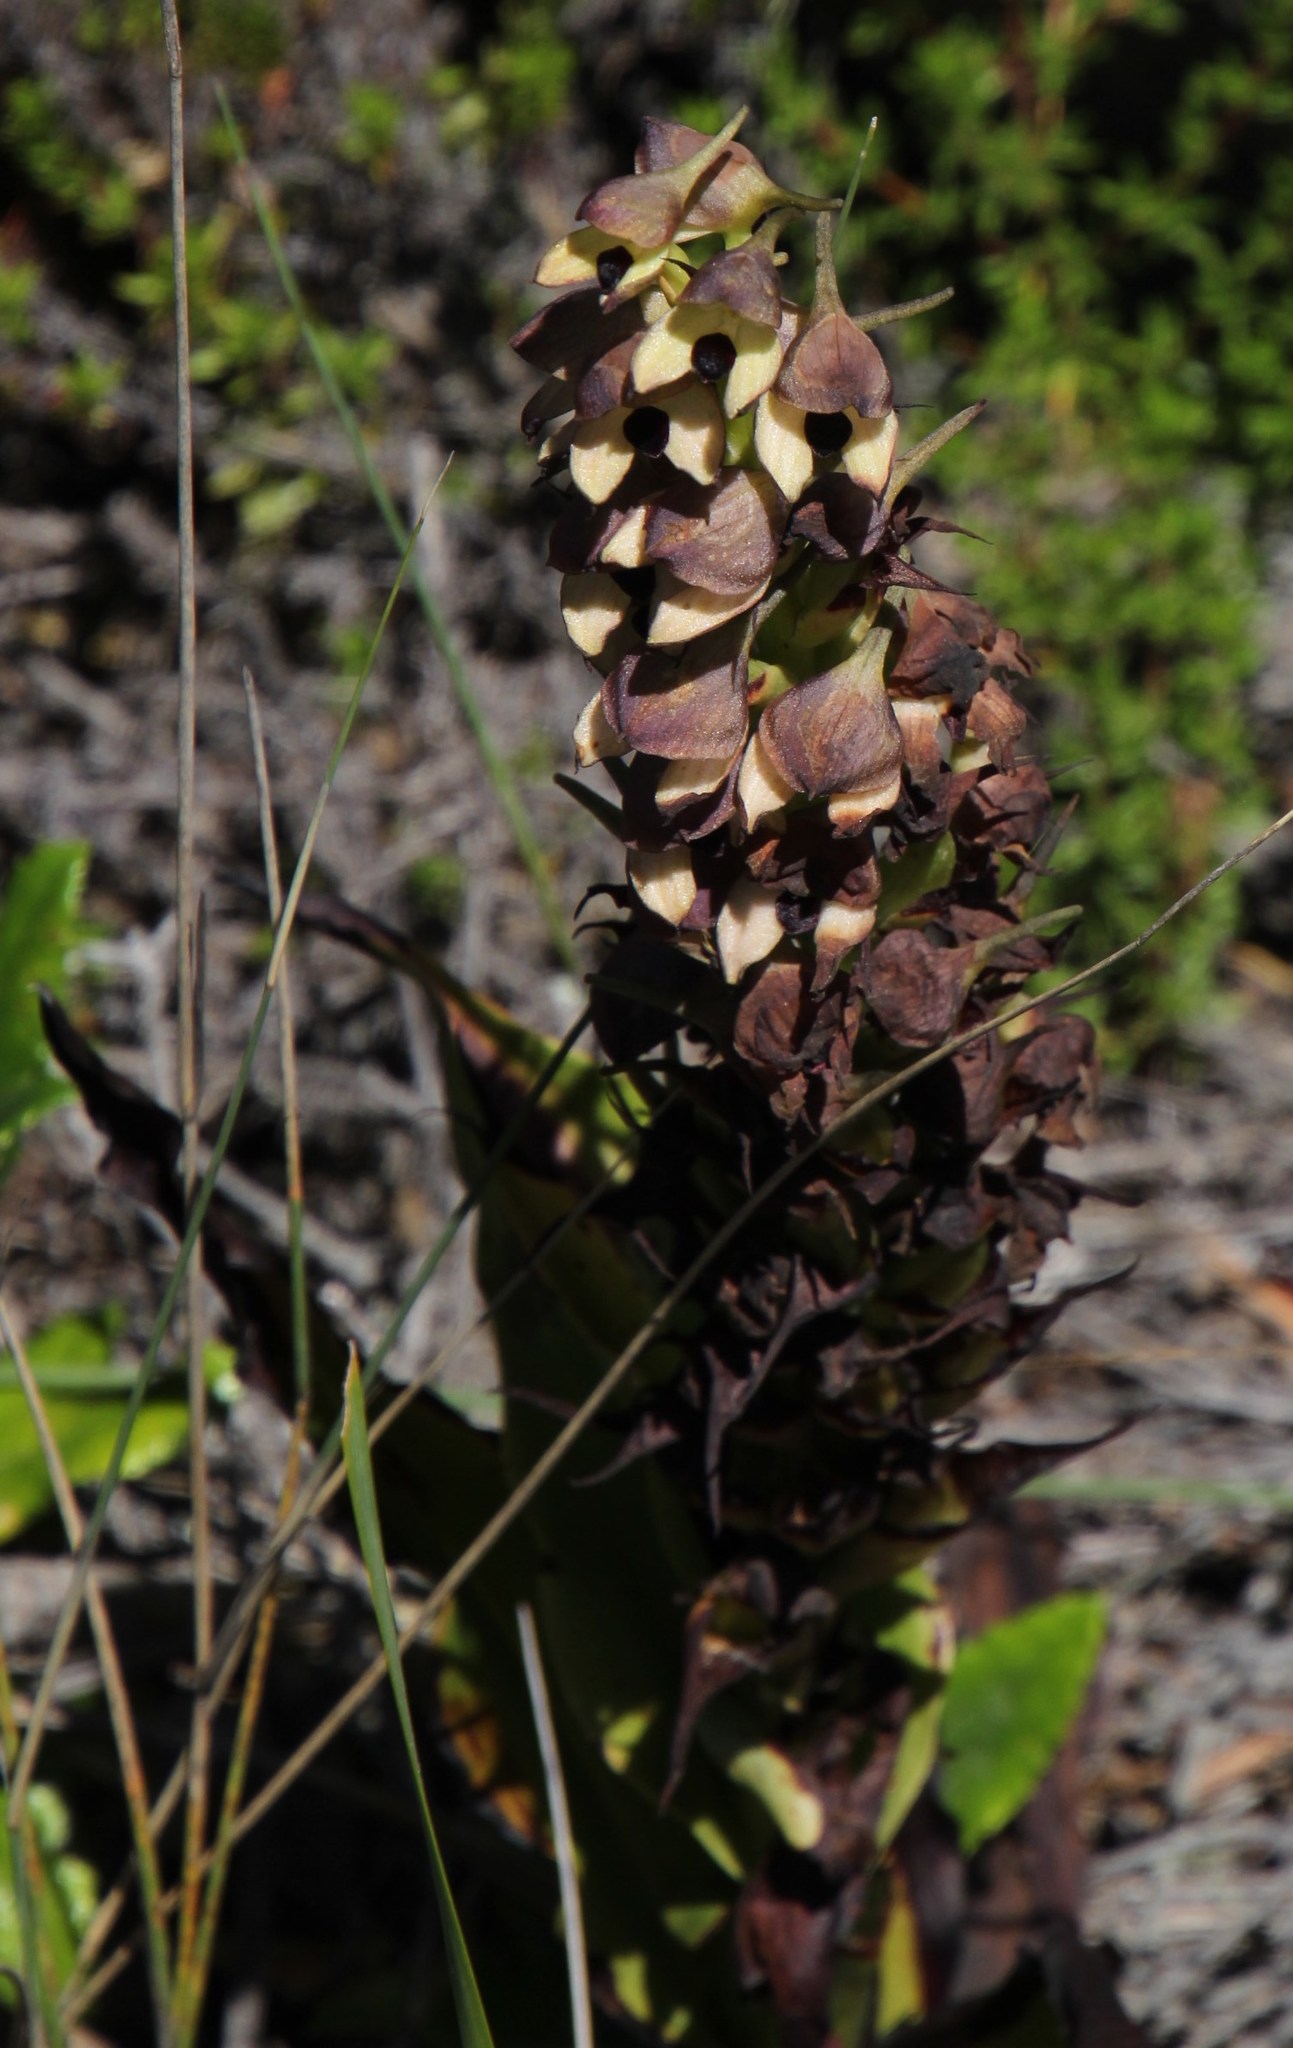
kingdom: Plantae
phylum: Tracheophyta
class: Liliopsida
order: Asparagales
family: Orchidaceae
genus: Disa
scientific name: Disa cornuta
